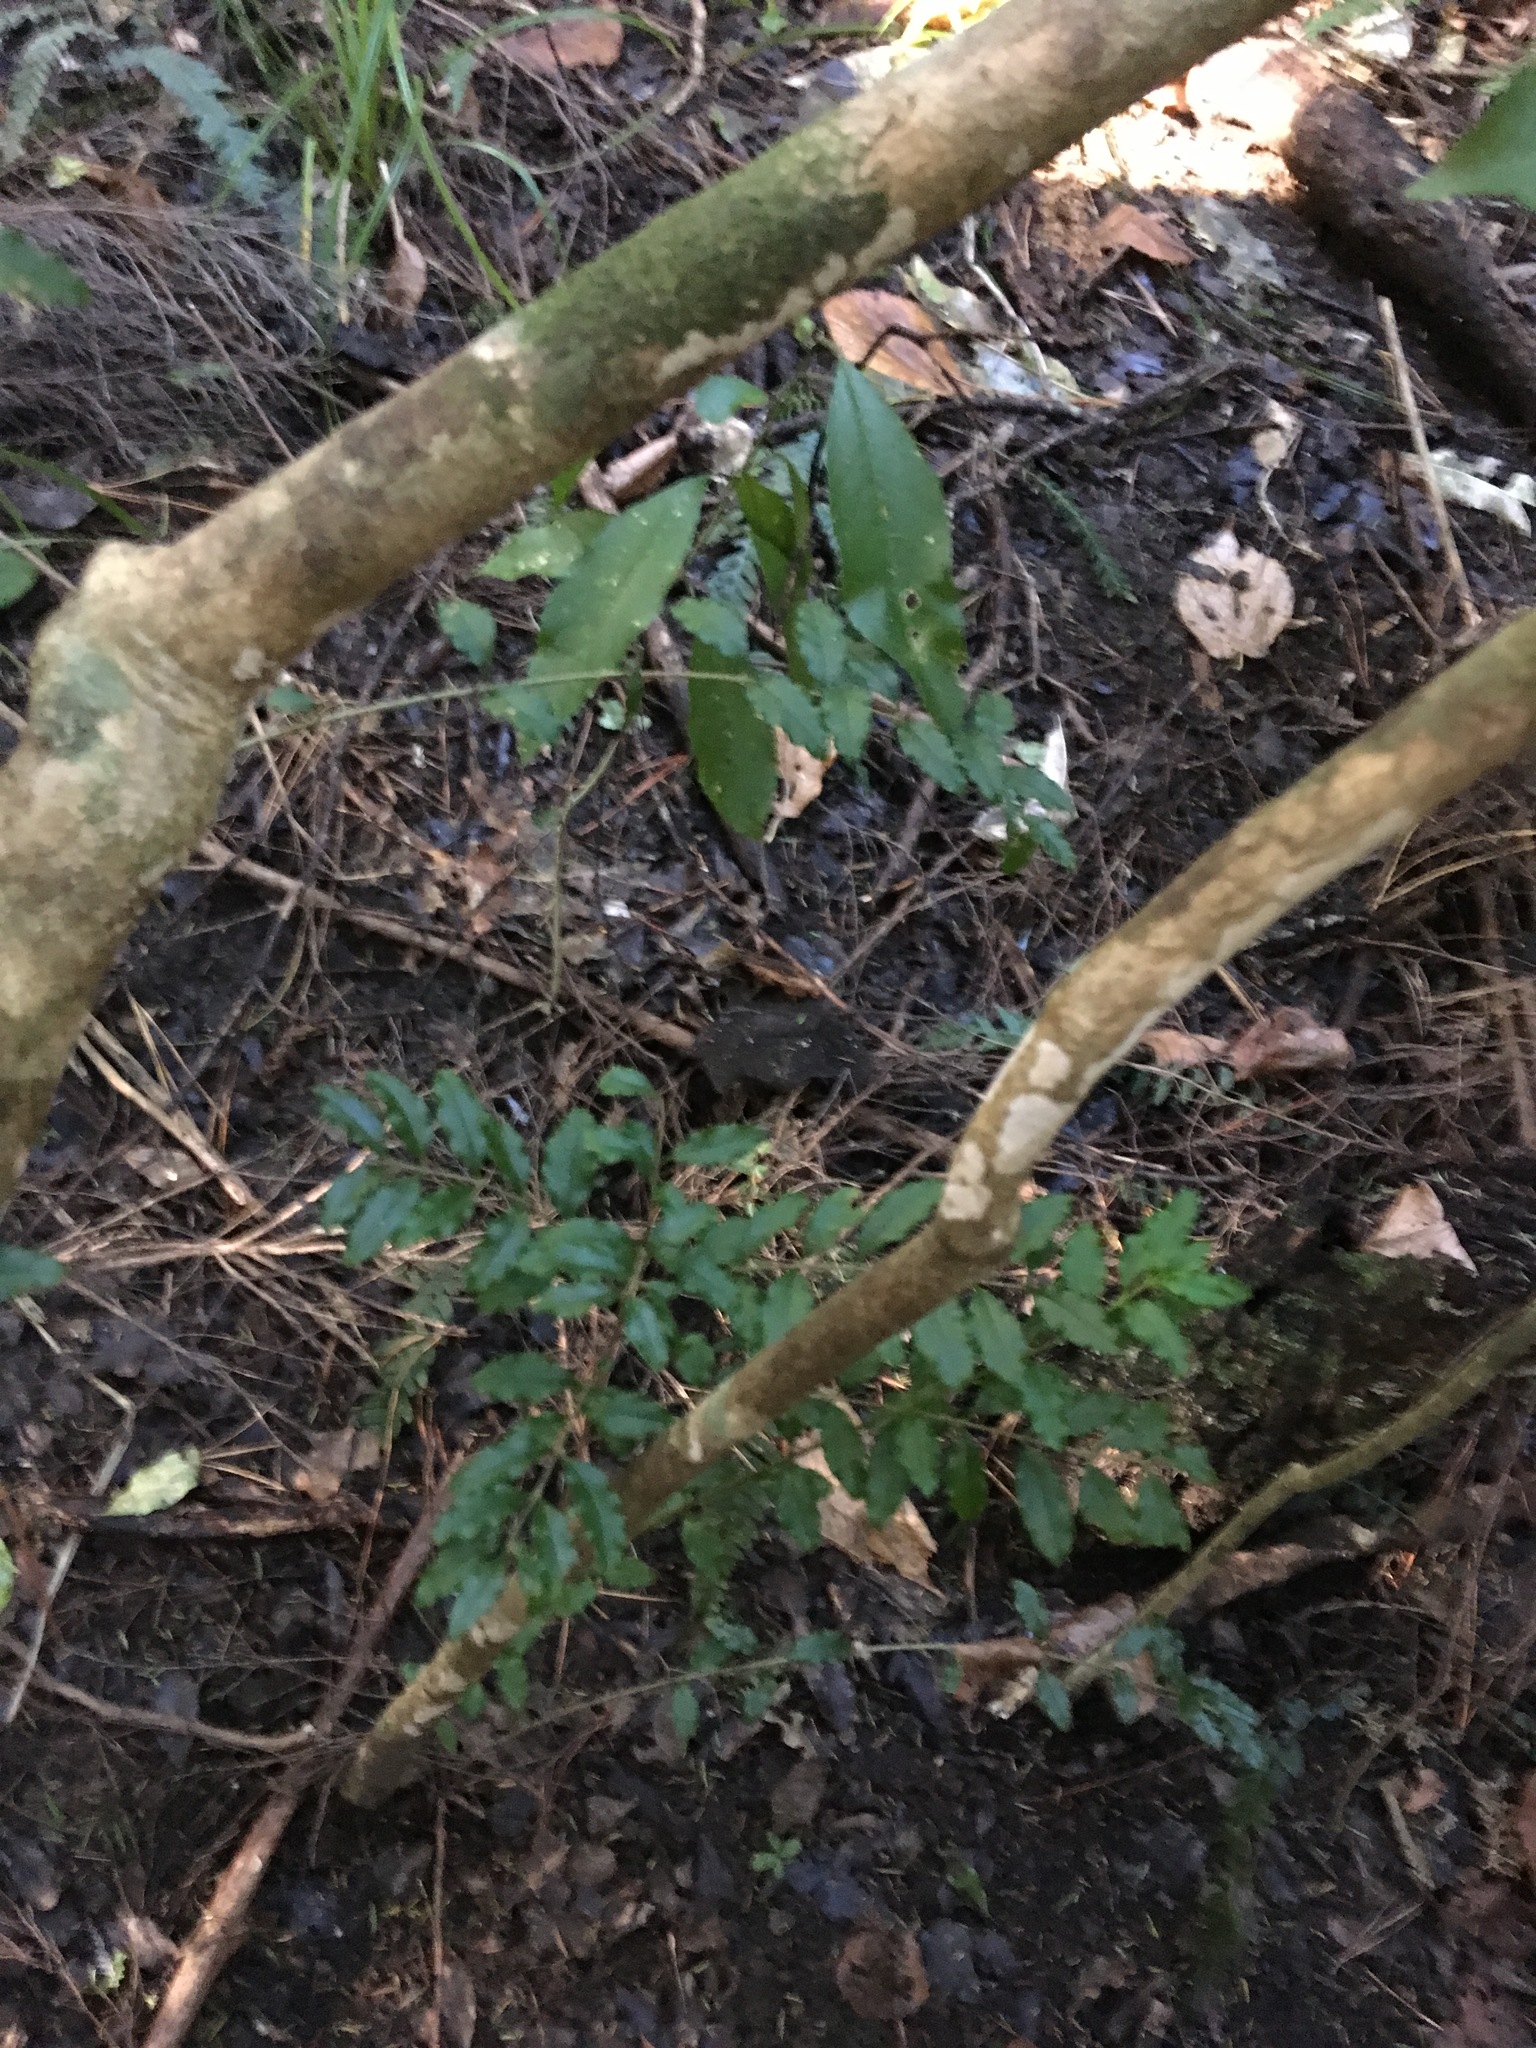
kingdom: Plantae
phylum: Tracheophyta
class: Magnoliopsida
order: Lamiales
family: Oleaceae
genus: Ligustrum
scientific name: Ligustrum sinense
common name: Chinese privet
